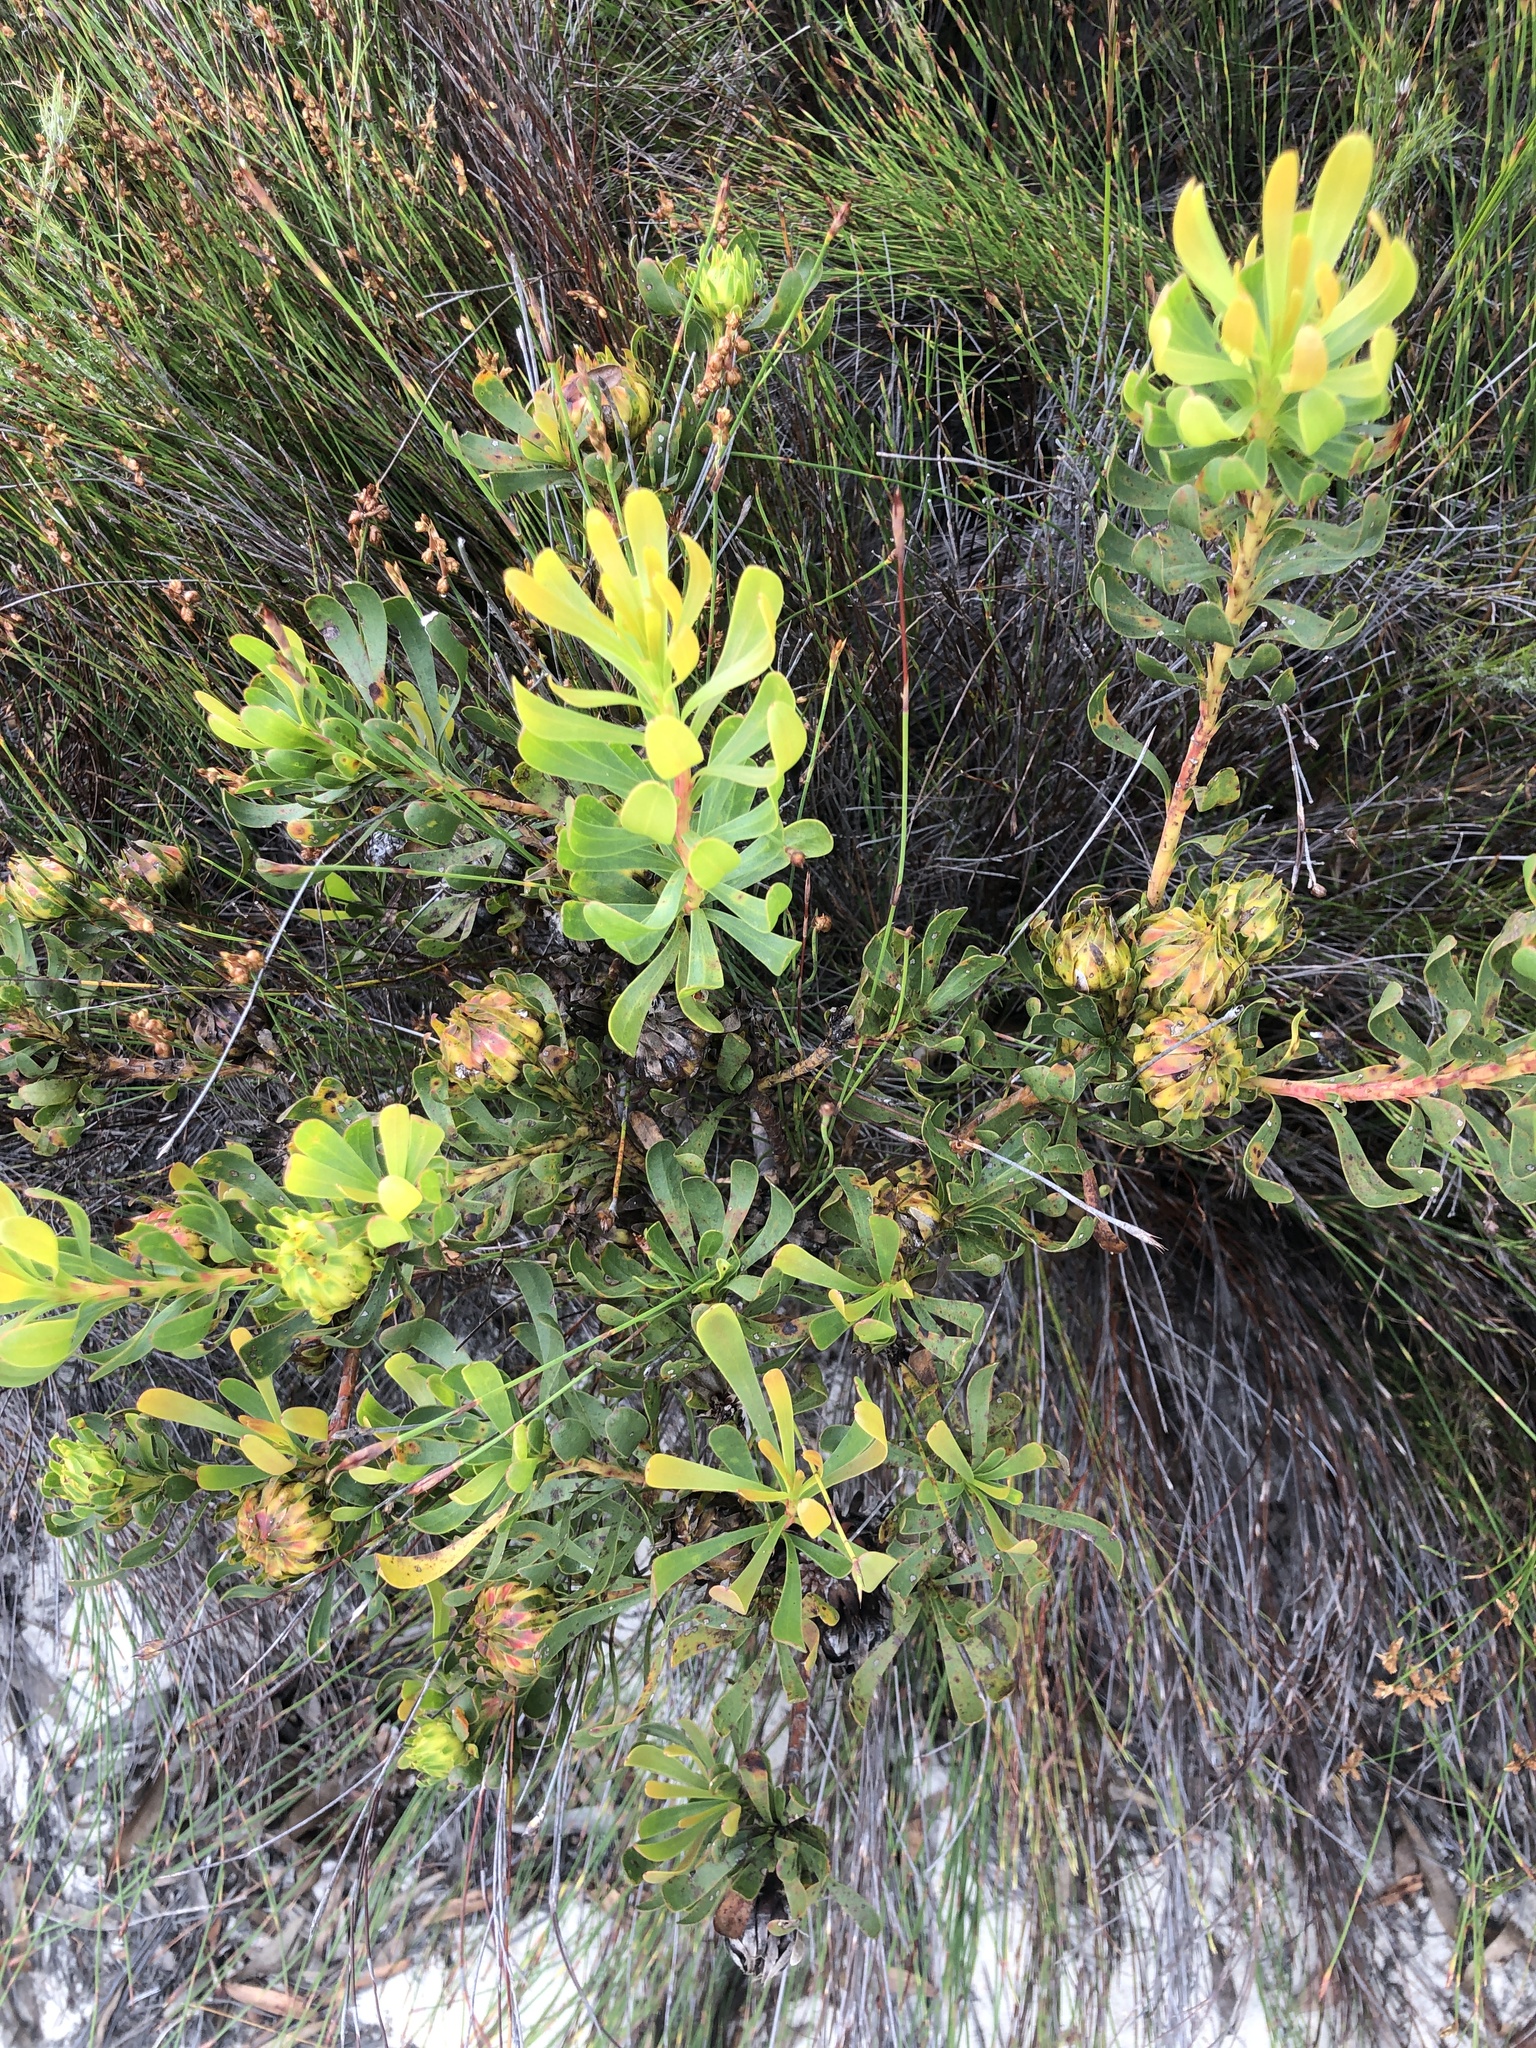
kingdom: Plantae
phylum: Tracheophyta
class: Magnoliopsida
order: Proteales
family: Proteaceae
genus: Aulax
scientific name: Aulax umbellata
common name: Broad-leaf featherbush
